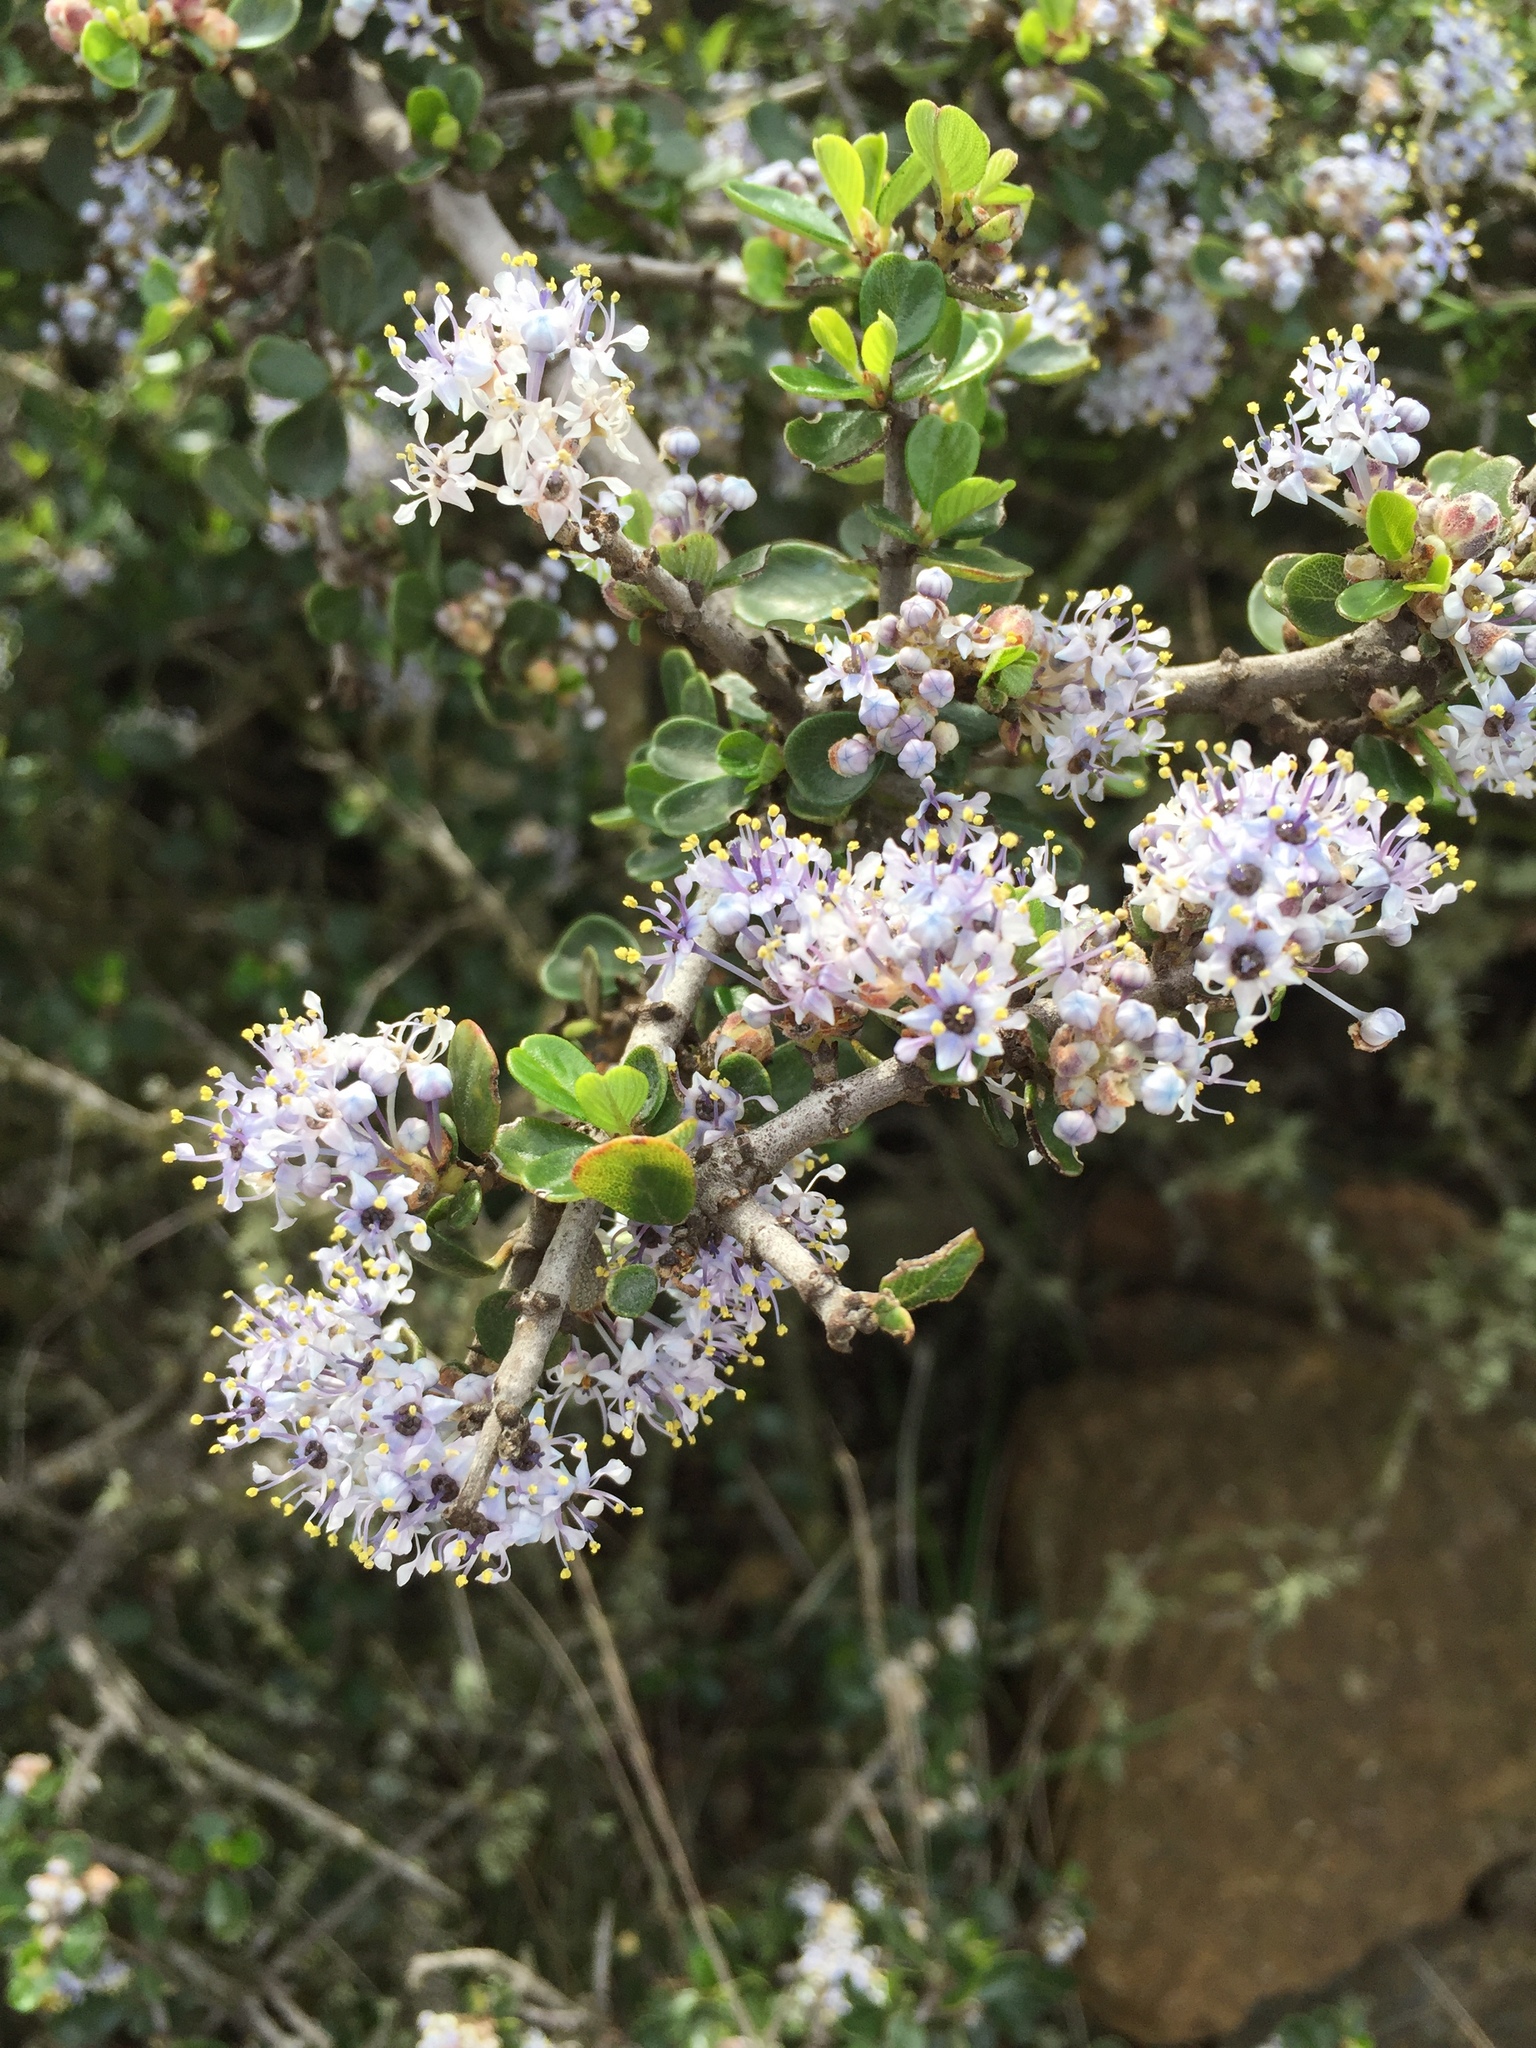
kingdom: Plantae
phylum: Tracheophyta
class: Magnoliopsida
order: Rosales
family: Rhamnaceae
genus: Ceanothus
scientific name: Ceanothus cuneatus
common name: Cuneate ceanothus
